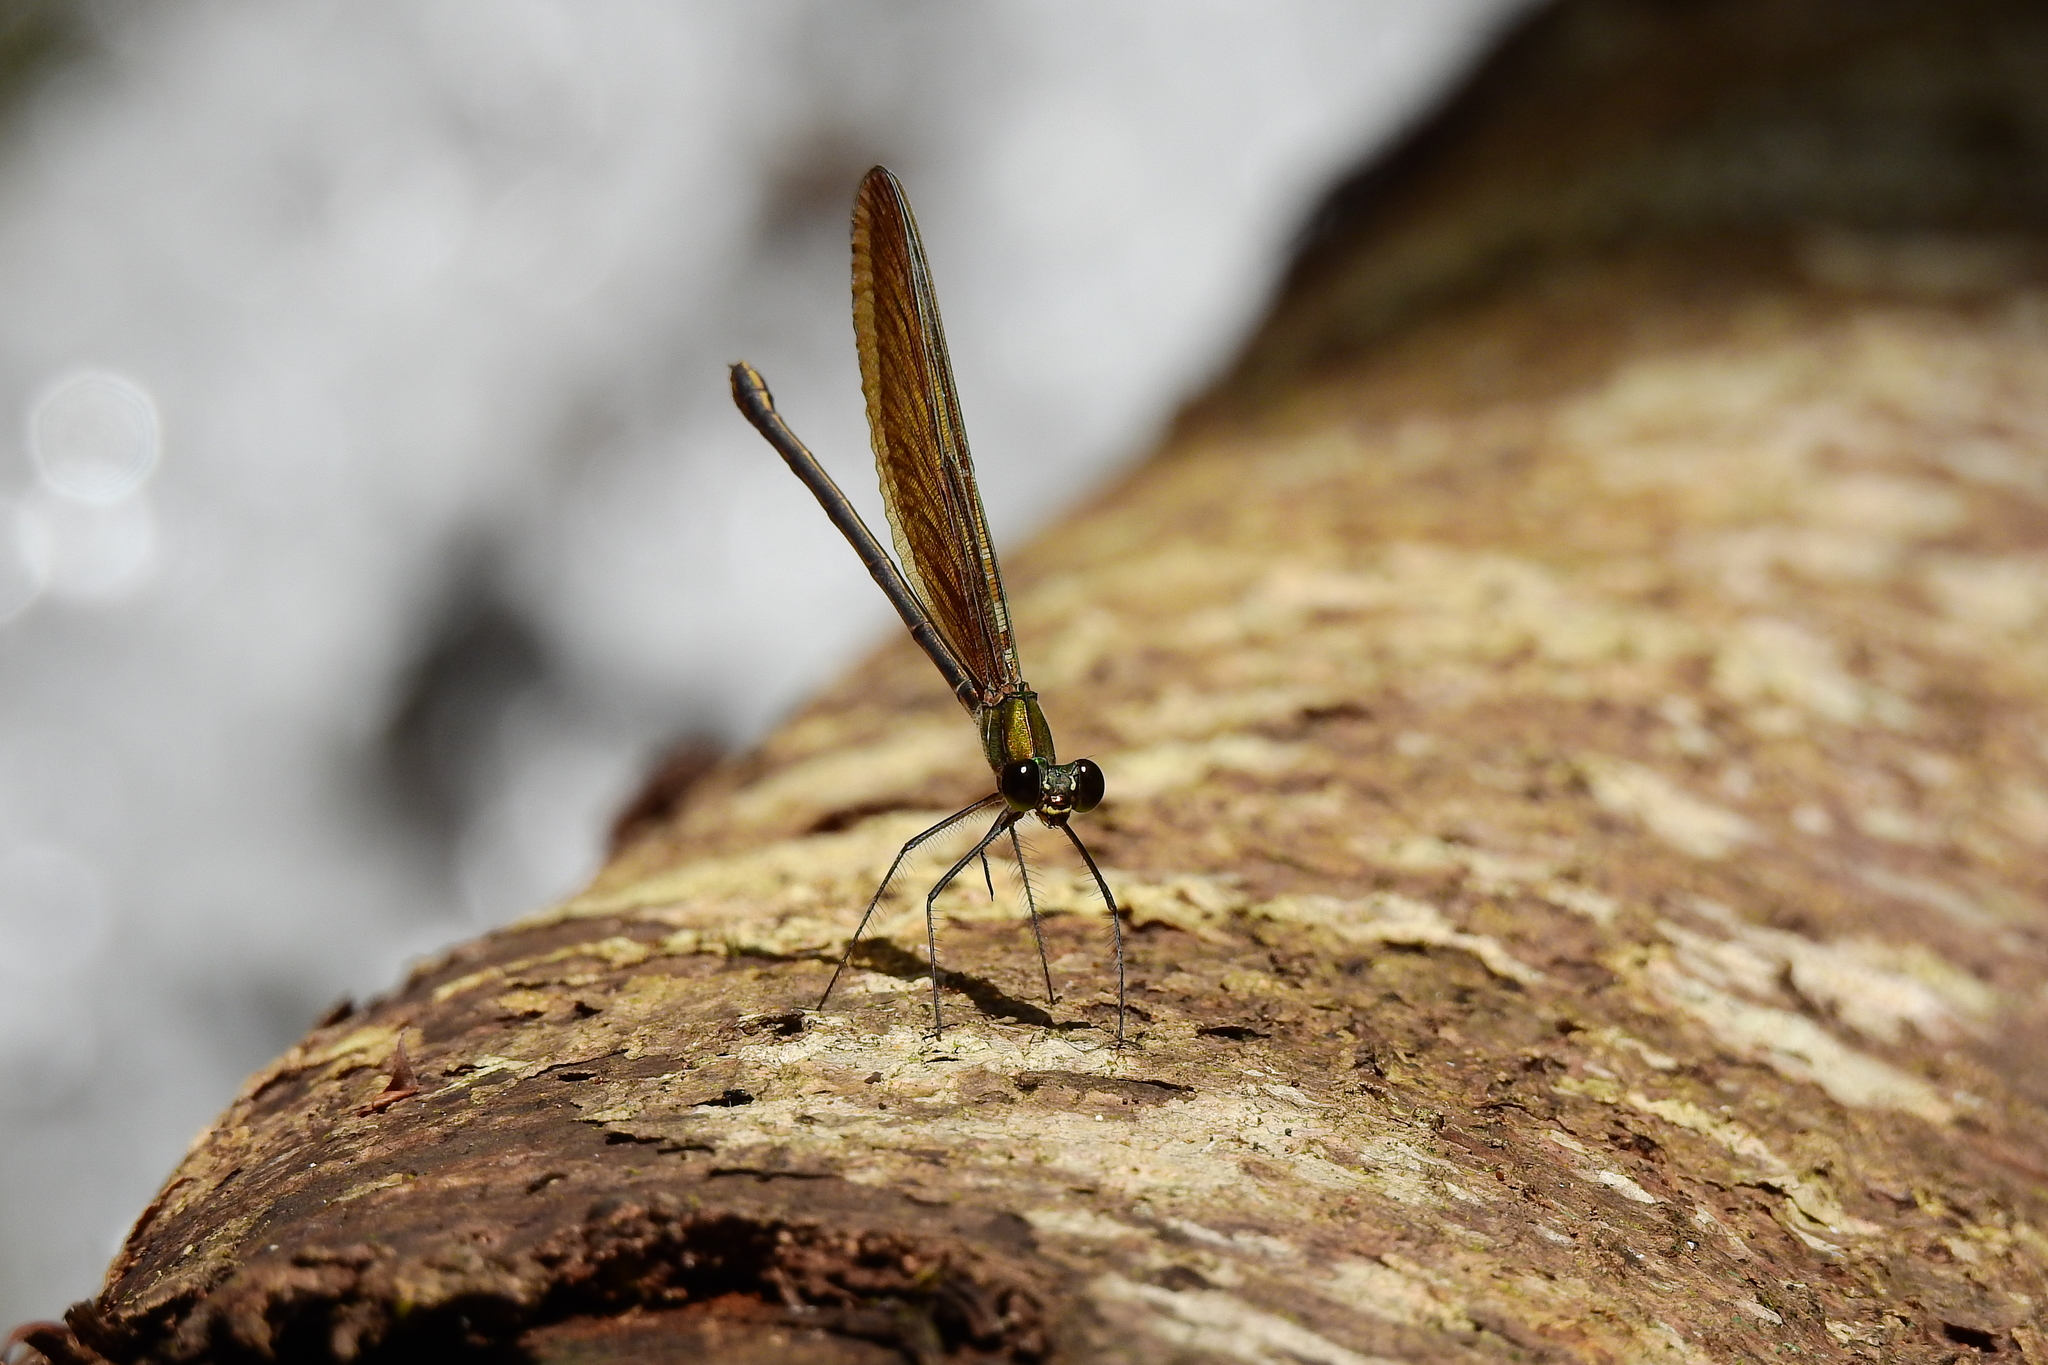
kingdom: Animalia
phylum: Arthropoda
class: Insecta
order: Odonata
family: Calopterygidae
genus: Neurobasis
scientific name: Neurobasis kaupi
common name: Great blue metalwing
